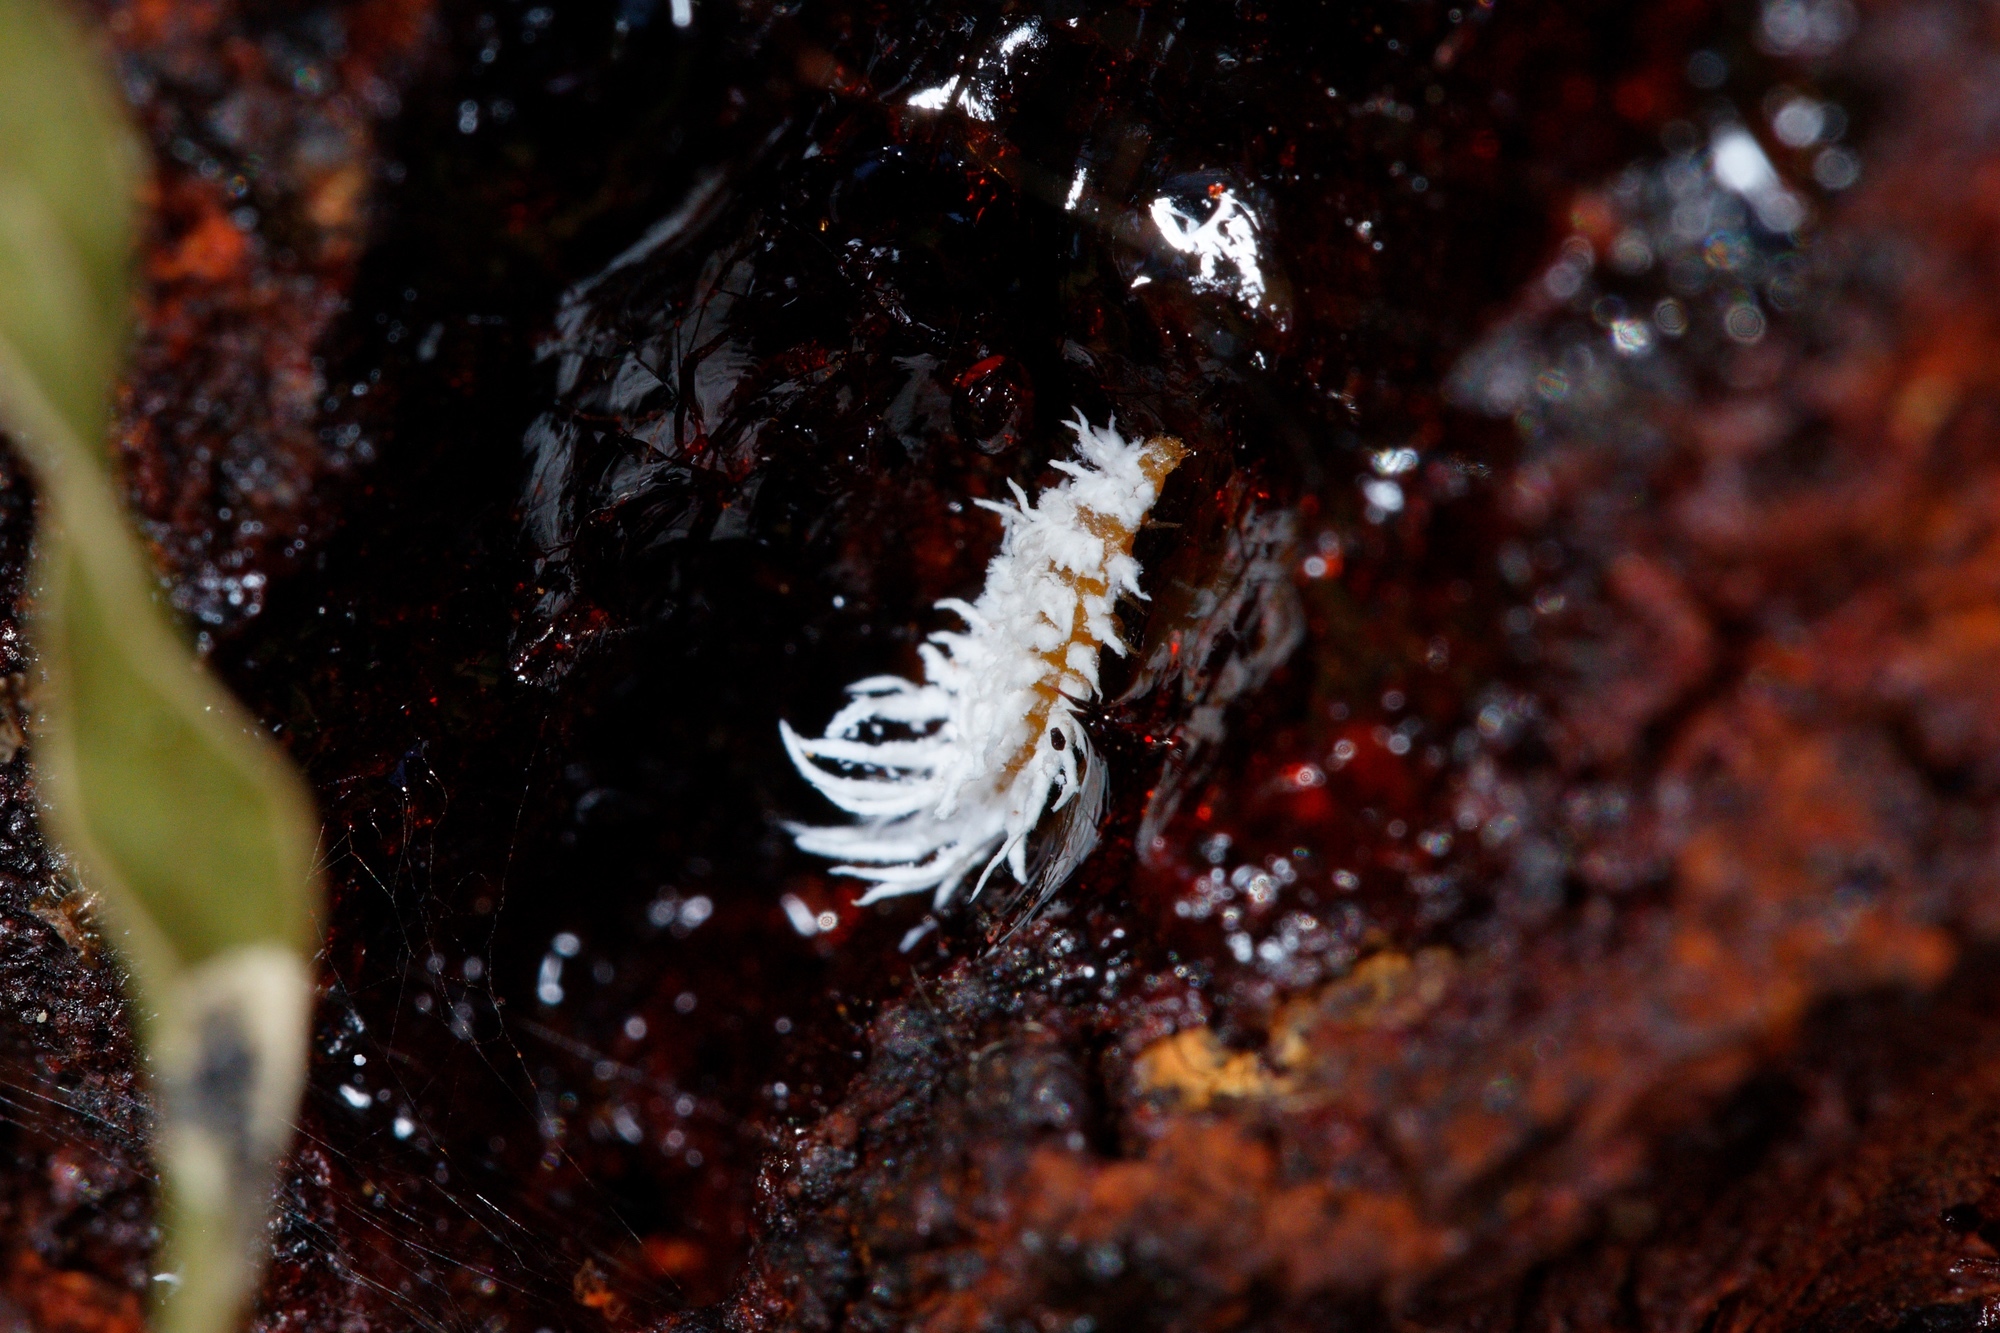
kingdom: Animalia
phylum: Arthropoda
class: Insecta
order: Coleoptera
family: Coccinellidae
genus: Cryptolaemus
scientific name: Cryptolaemus montrouzieri
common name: Mealybug destroyer
